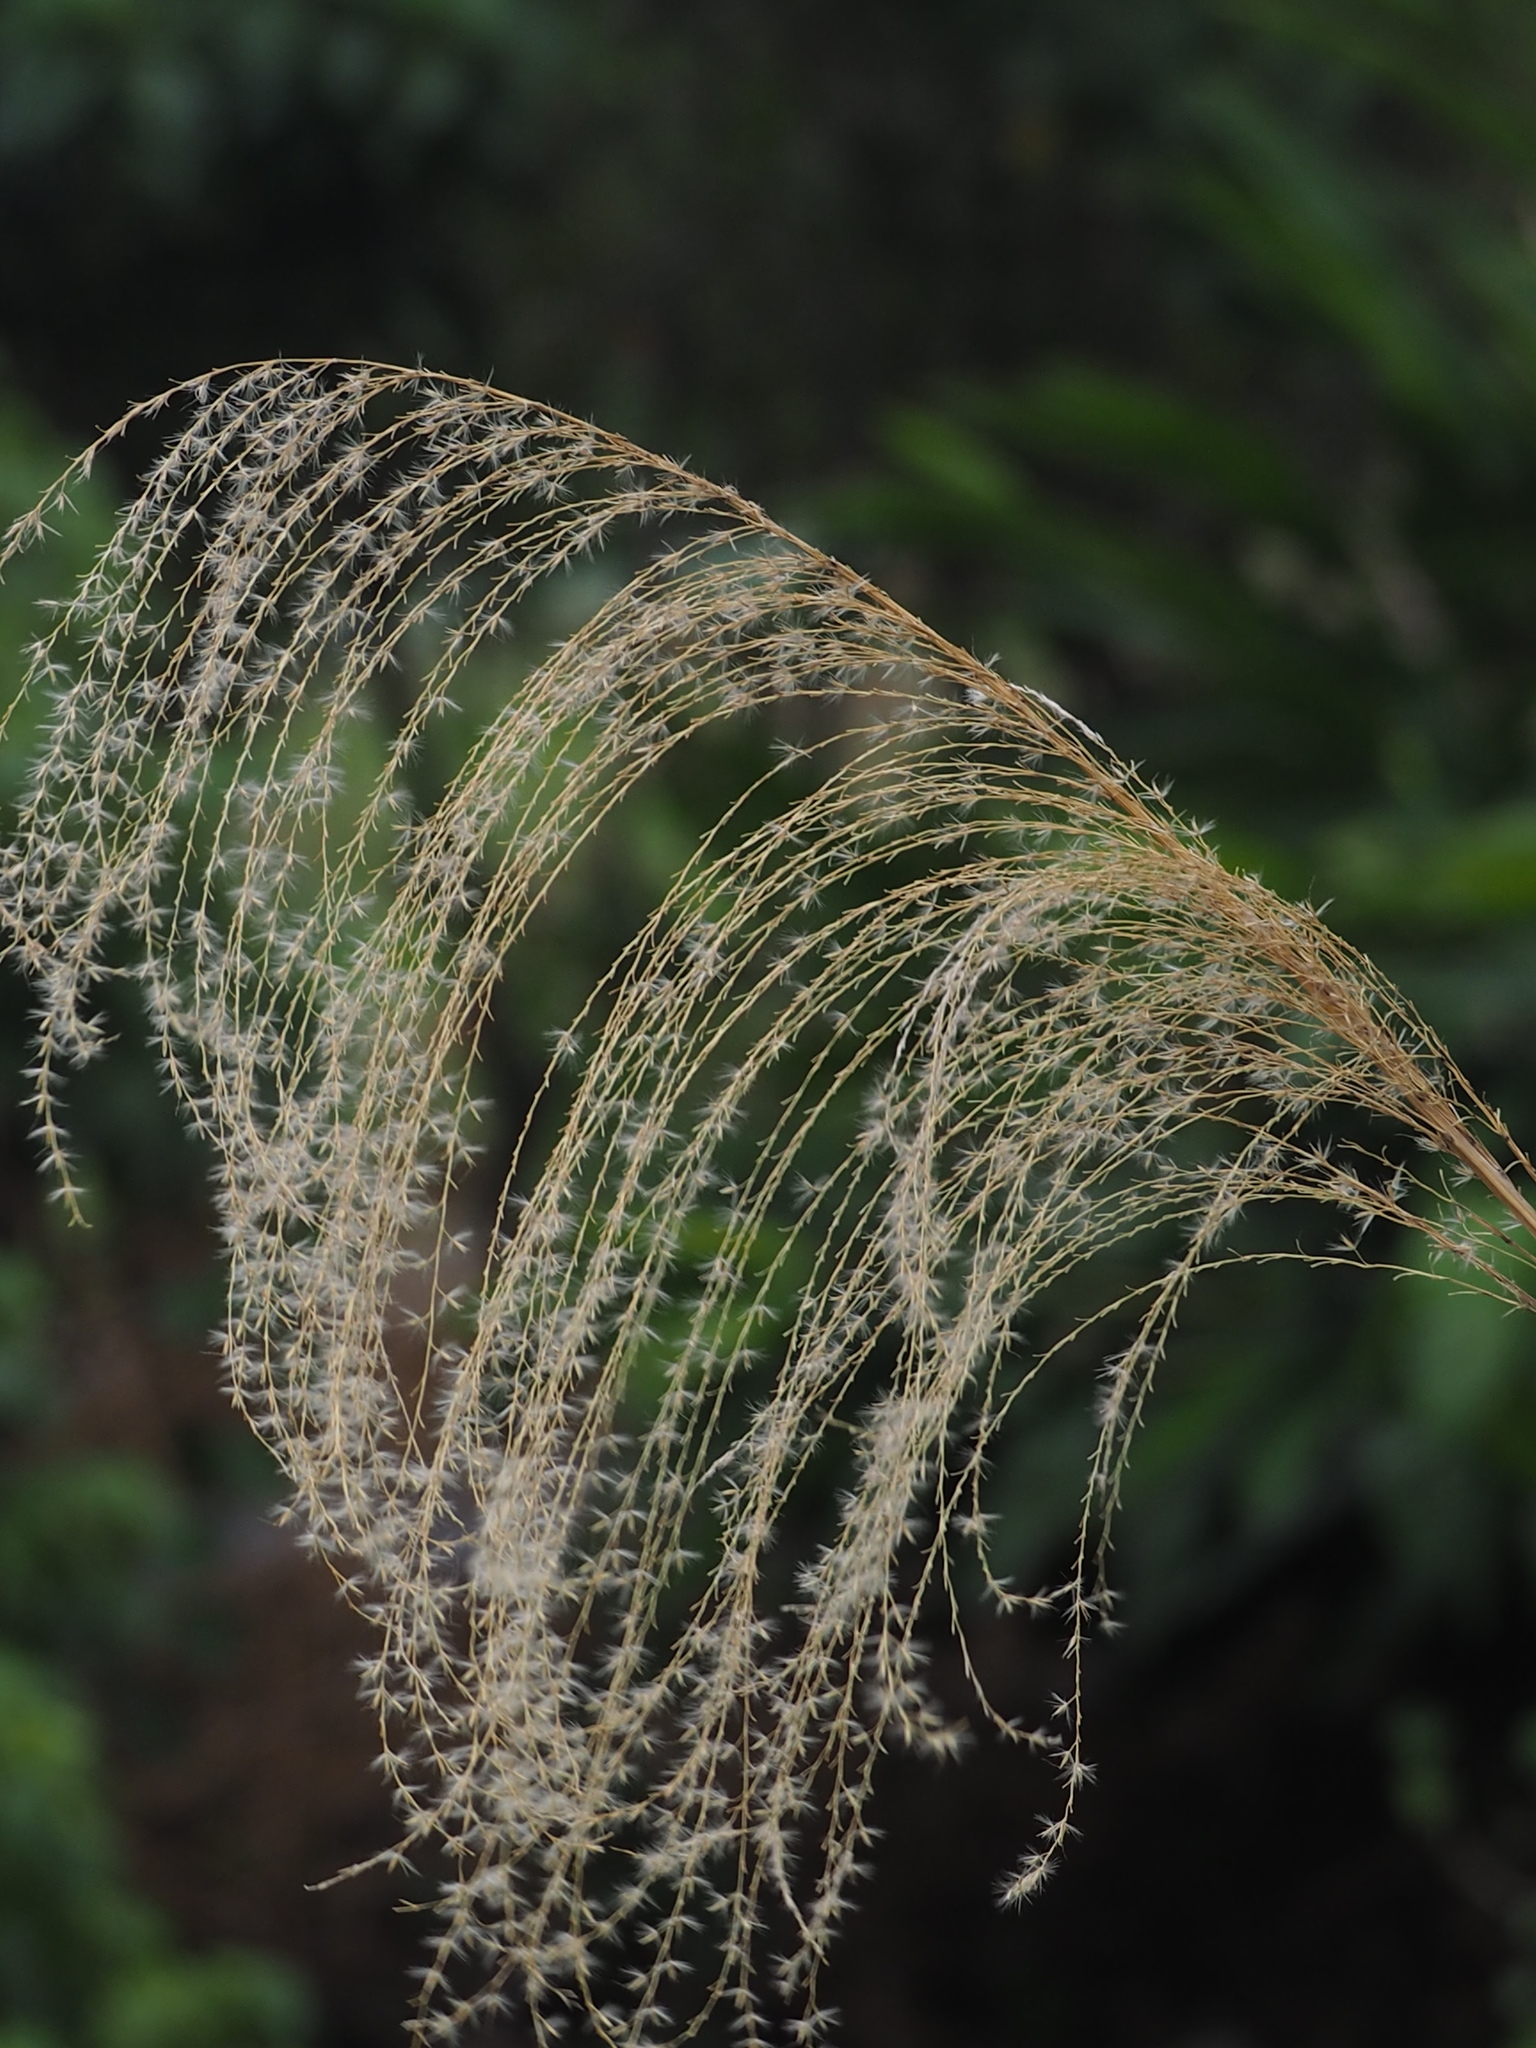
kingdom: Plantae
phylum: Tracheophyta
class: Liliopsida
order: Poales
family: Poaceae
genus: Miscanthus
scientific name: Miscanthus sinensis
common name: Chinese silvergrass
